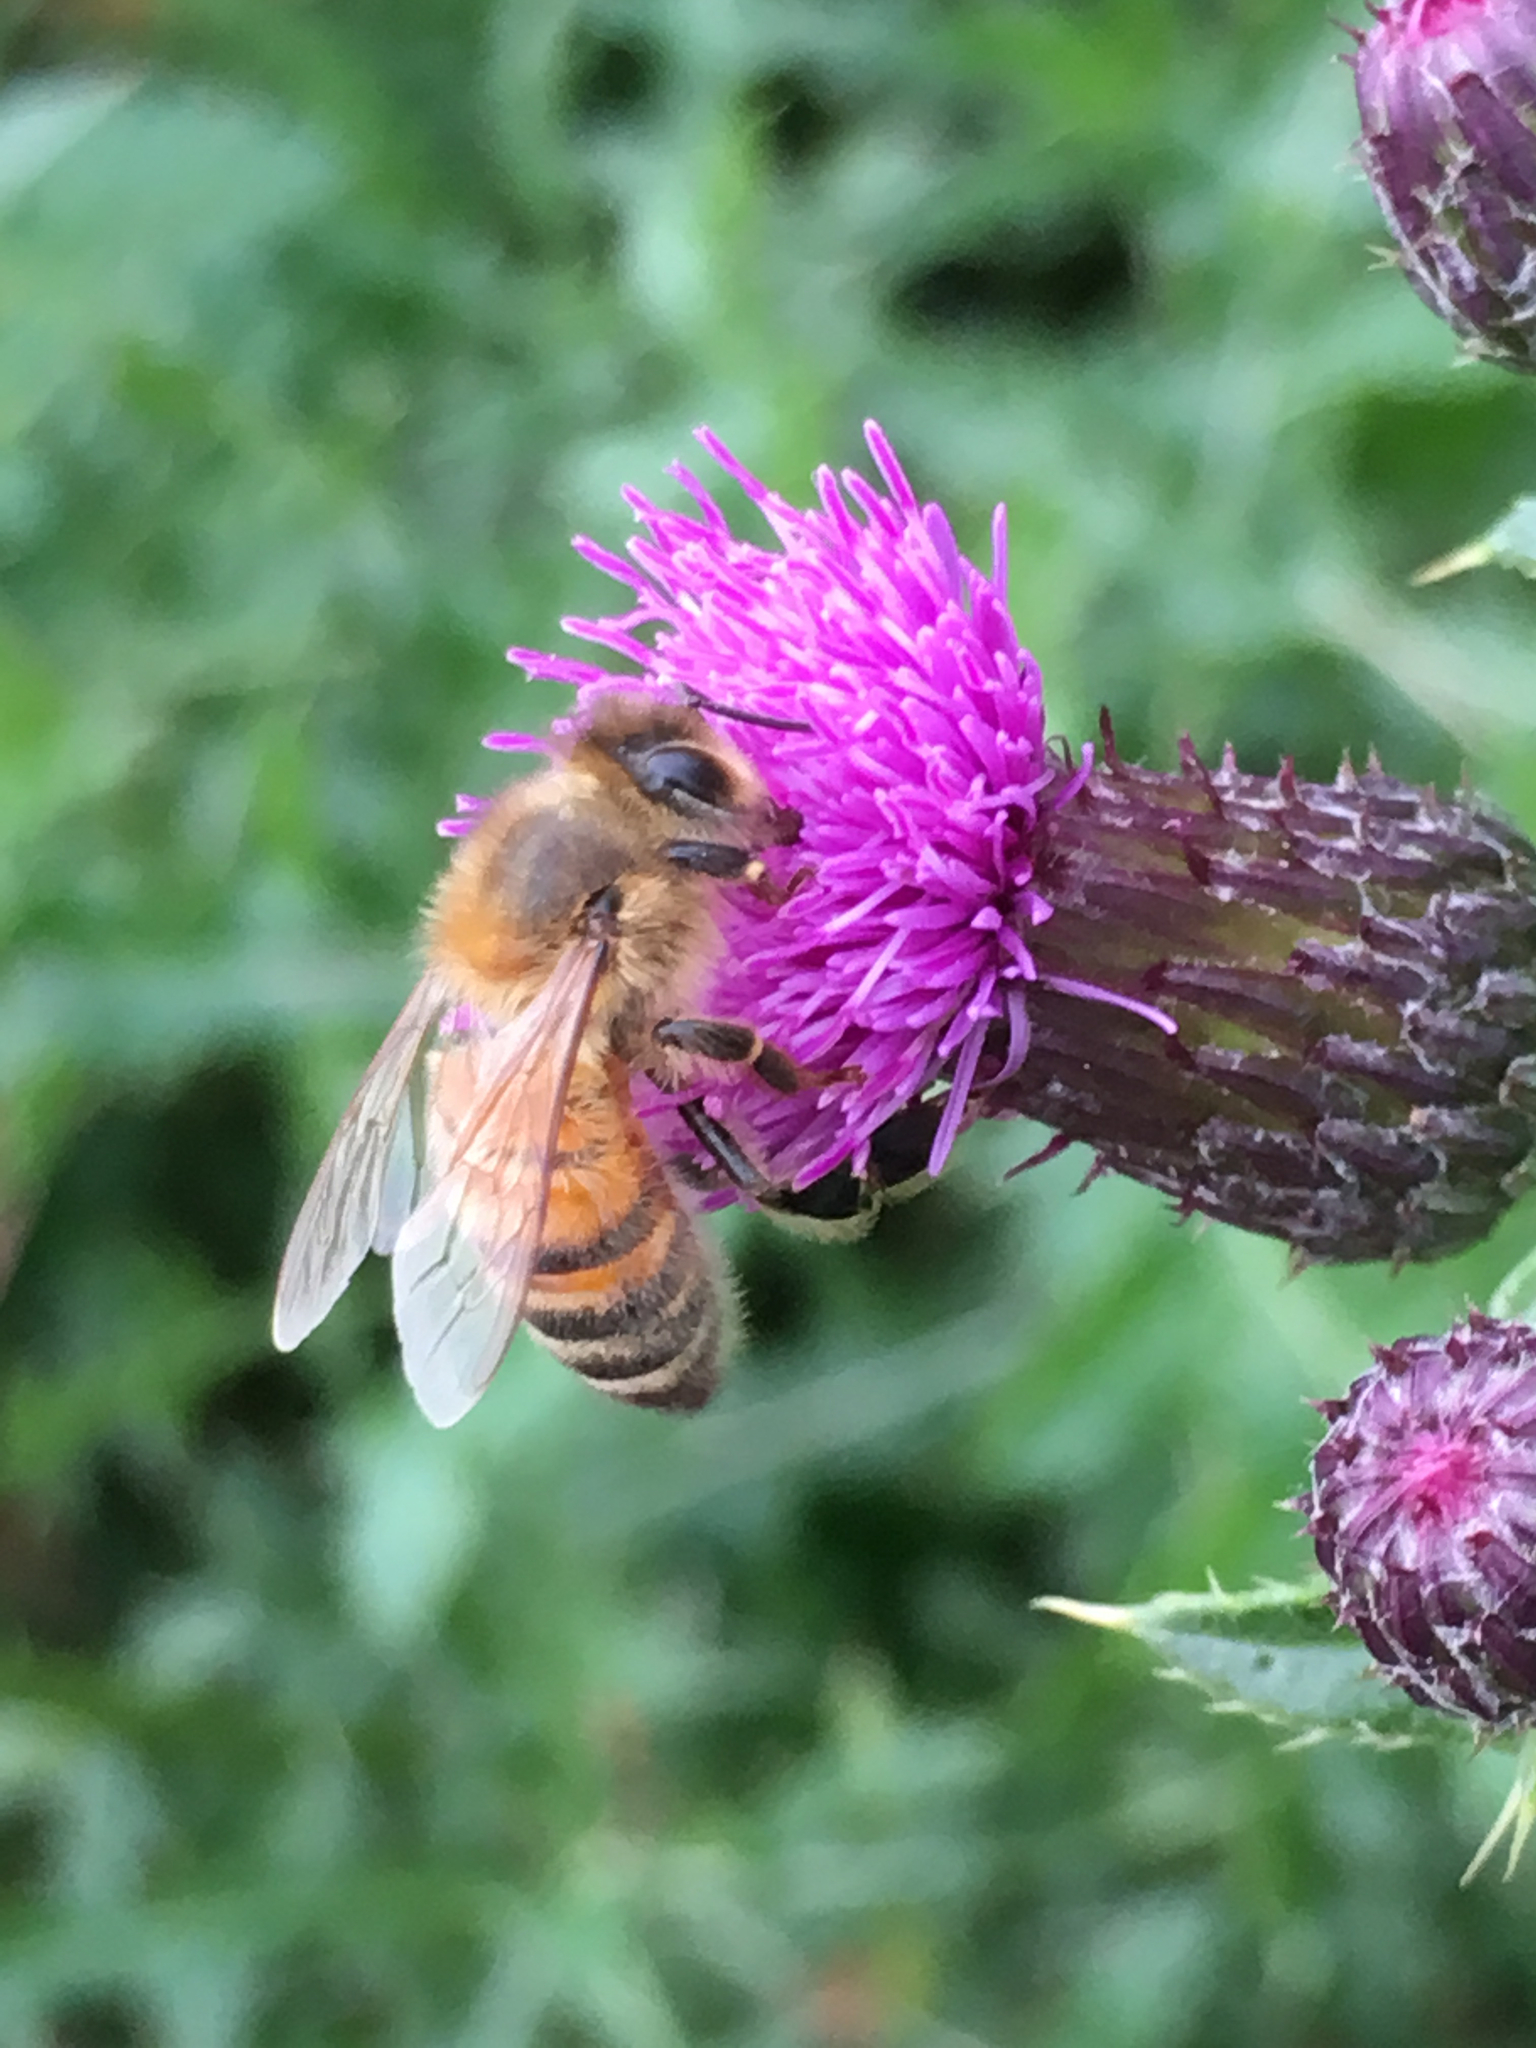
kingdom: Animalia
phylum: Arthropoda
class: Insecta
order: Hymenoptera
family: Apidae
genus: Apis
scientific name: Apis mellifera
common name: Honey bee
